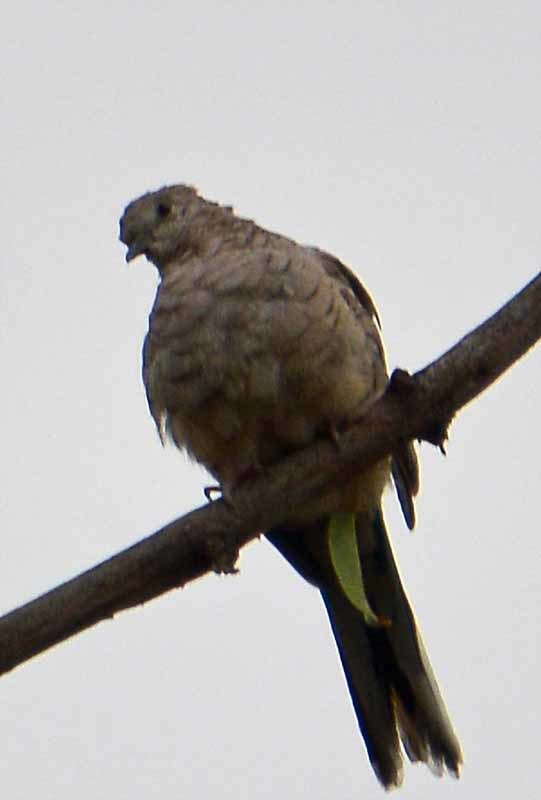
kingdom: Animalia
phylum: Chordata
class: Aves
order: Columbiformes
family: Columbidae
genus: Columbina
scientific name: Columbina inca
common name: Inca dove
